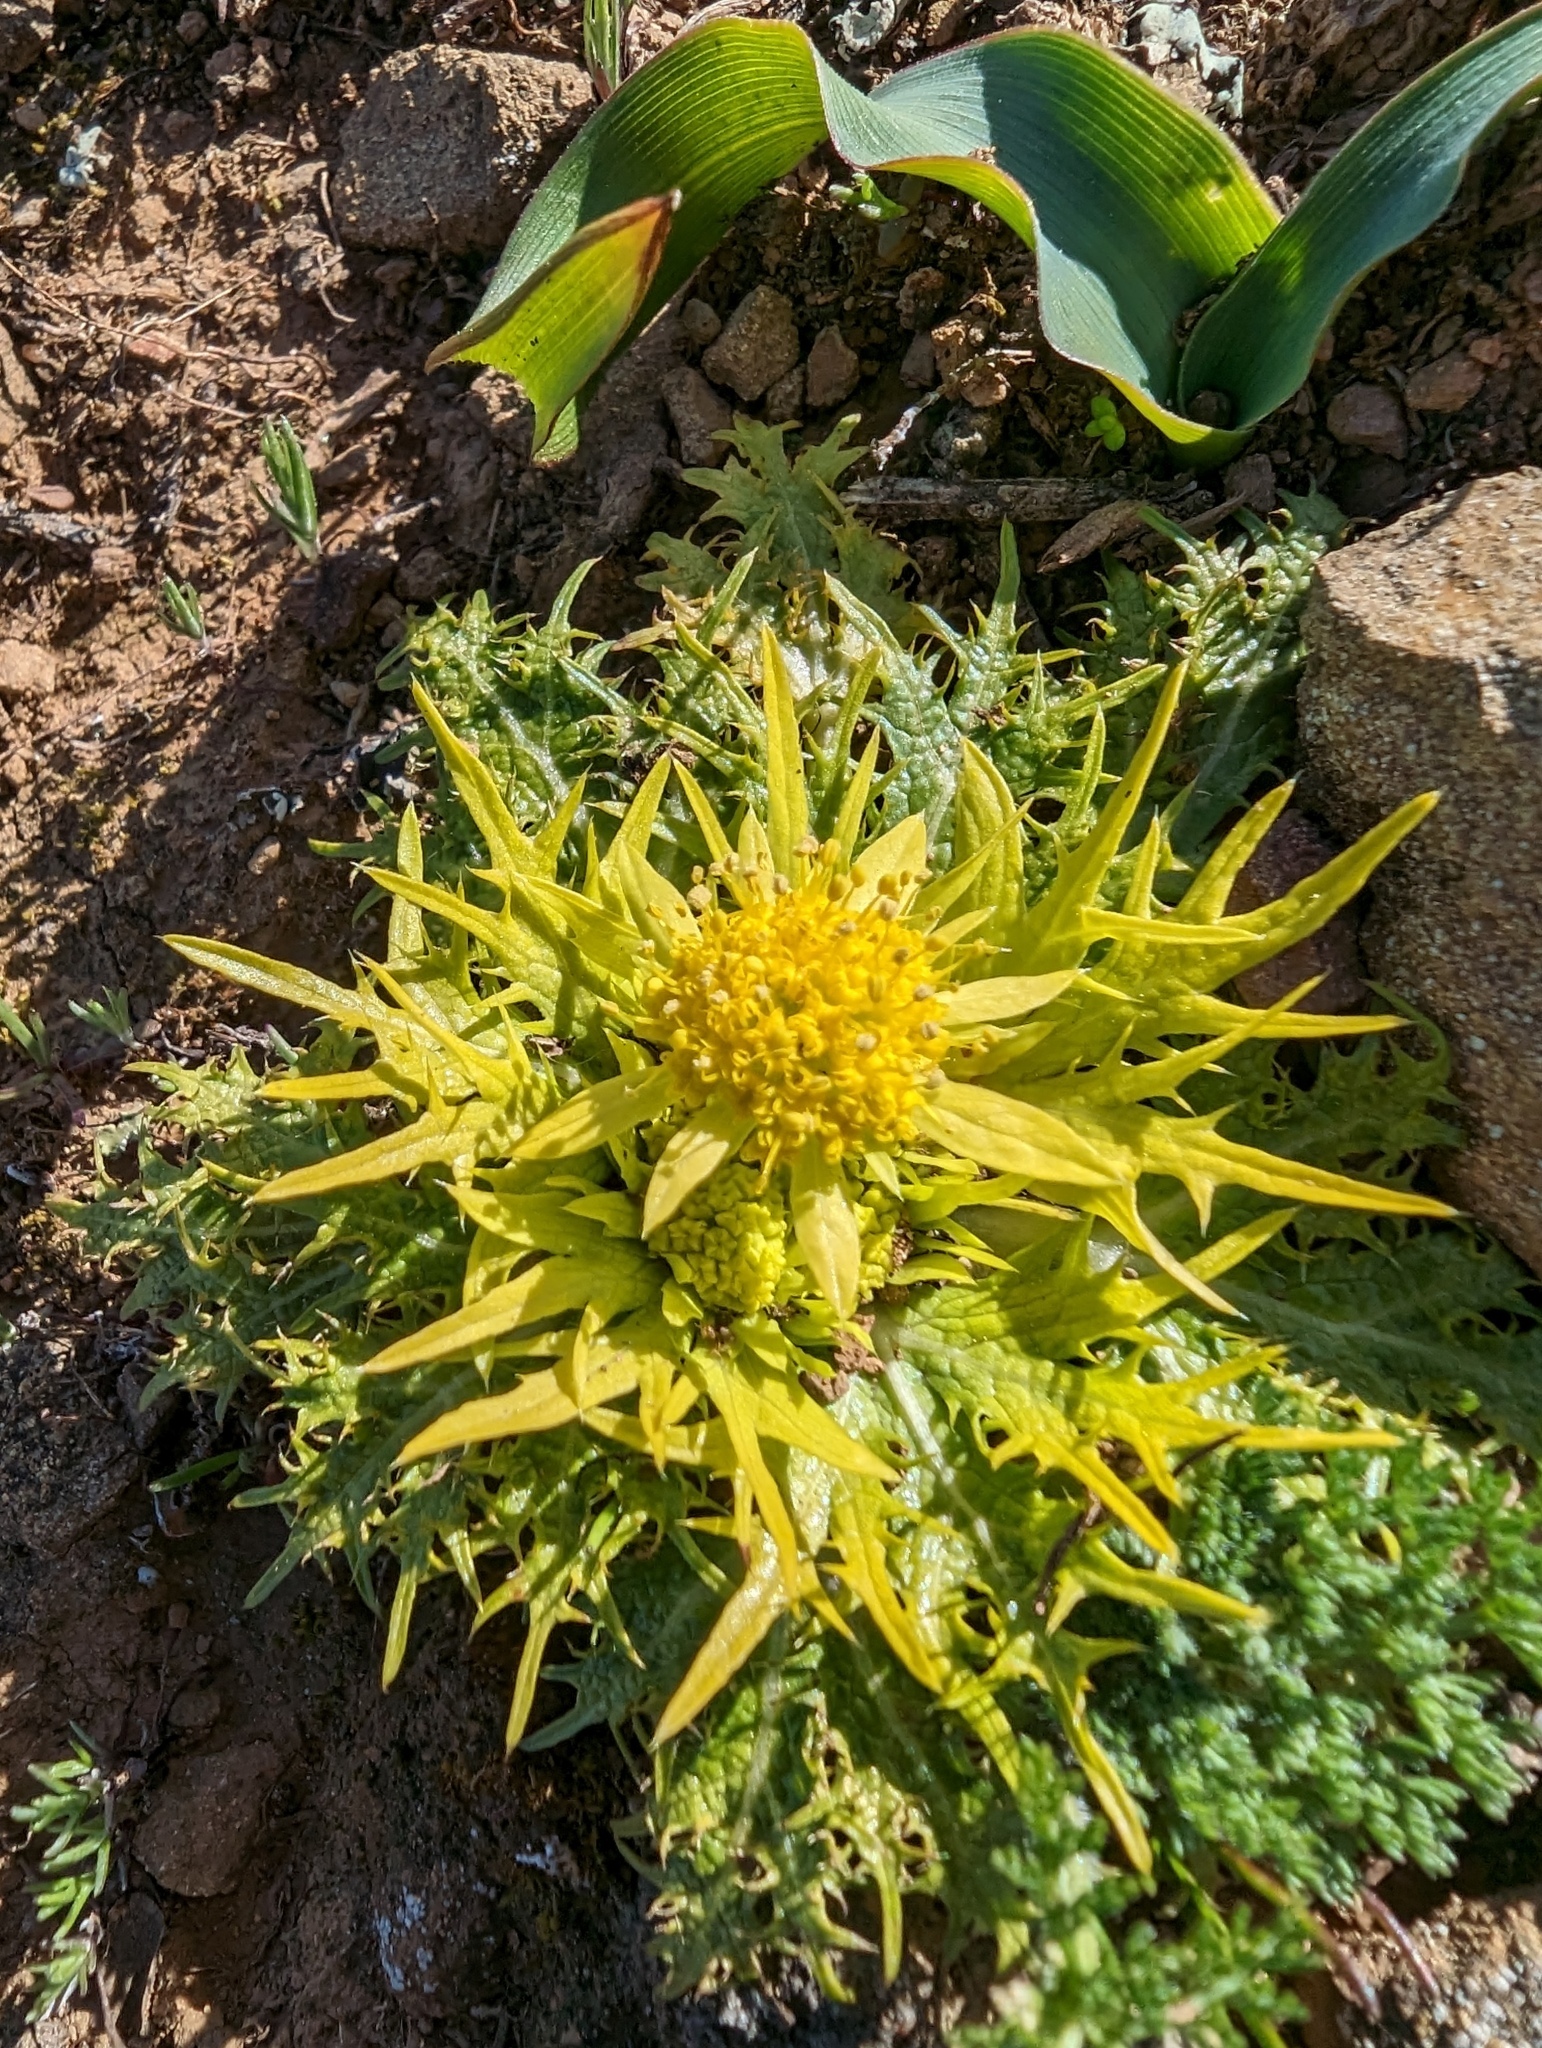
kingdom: Plantae
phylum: Tracheophyta
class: Magnoliopsida
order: Apiales
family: Apiaceae
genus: Sanicula
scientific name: Sanicula arctopoides
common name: Footsteps-of-spring
